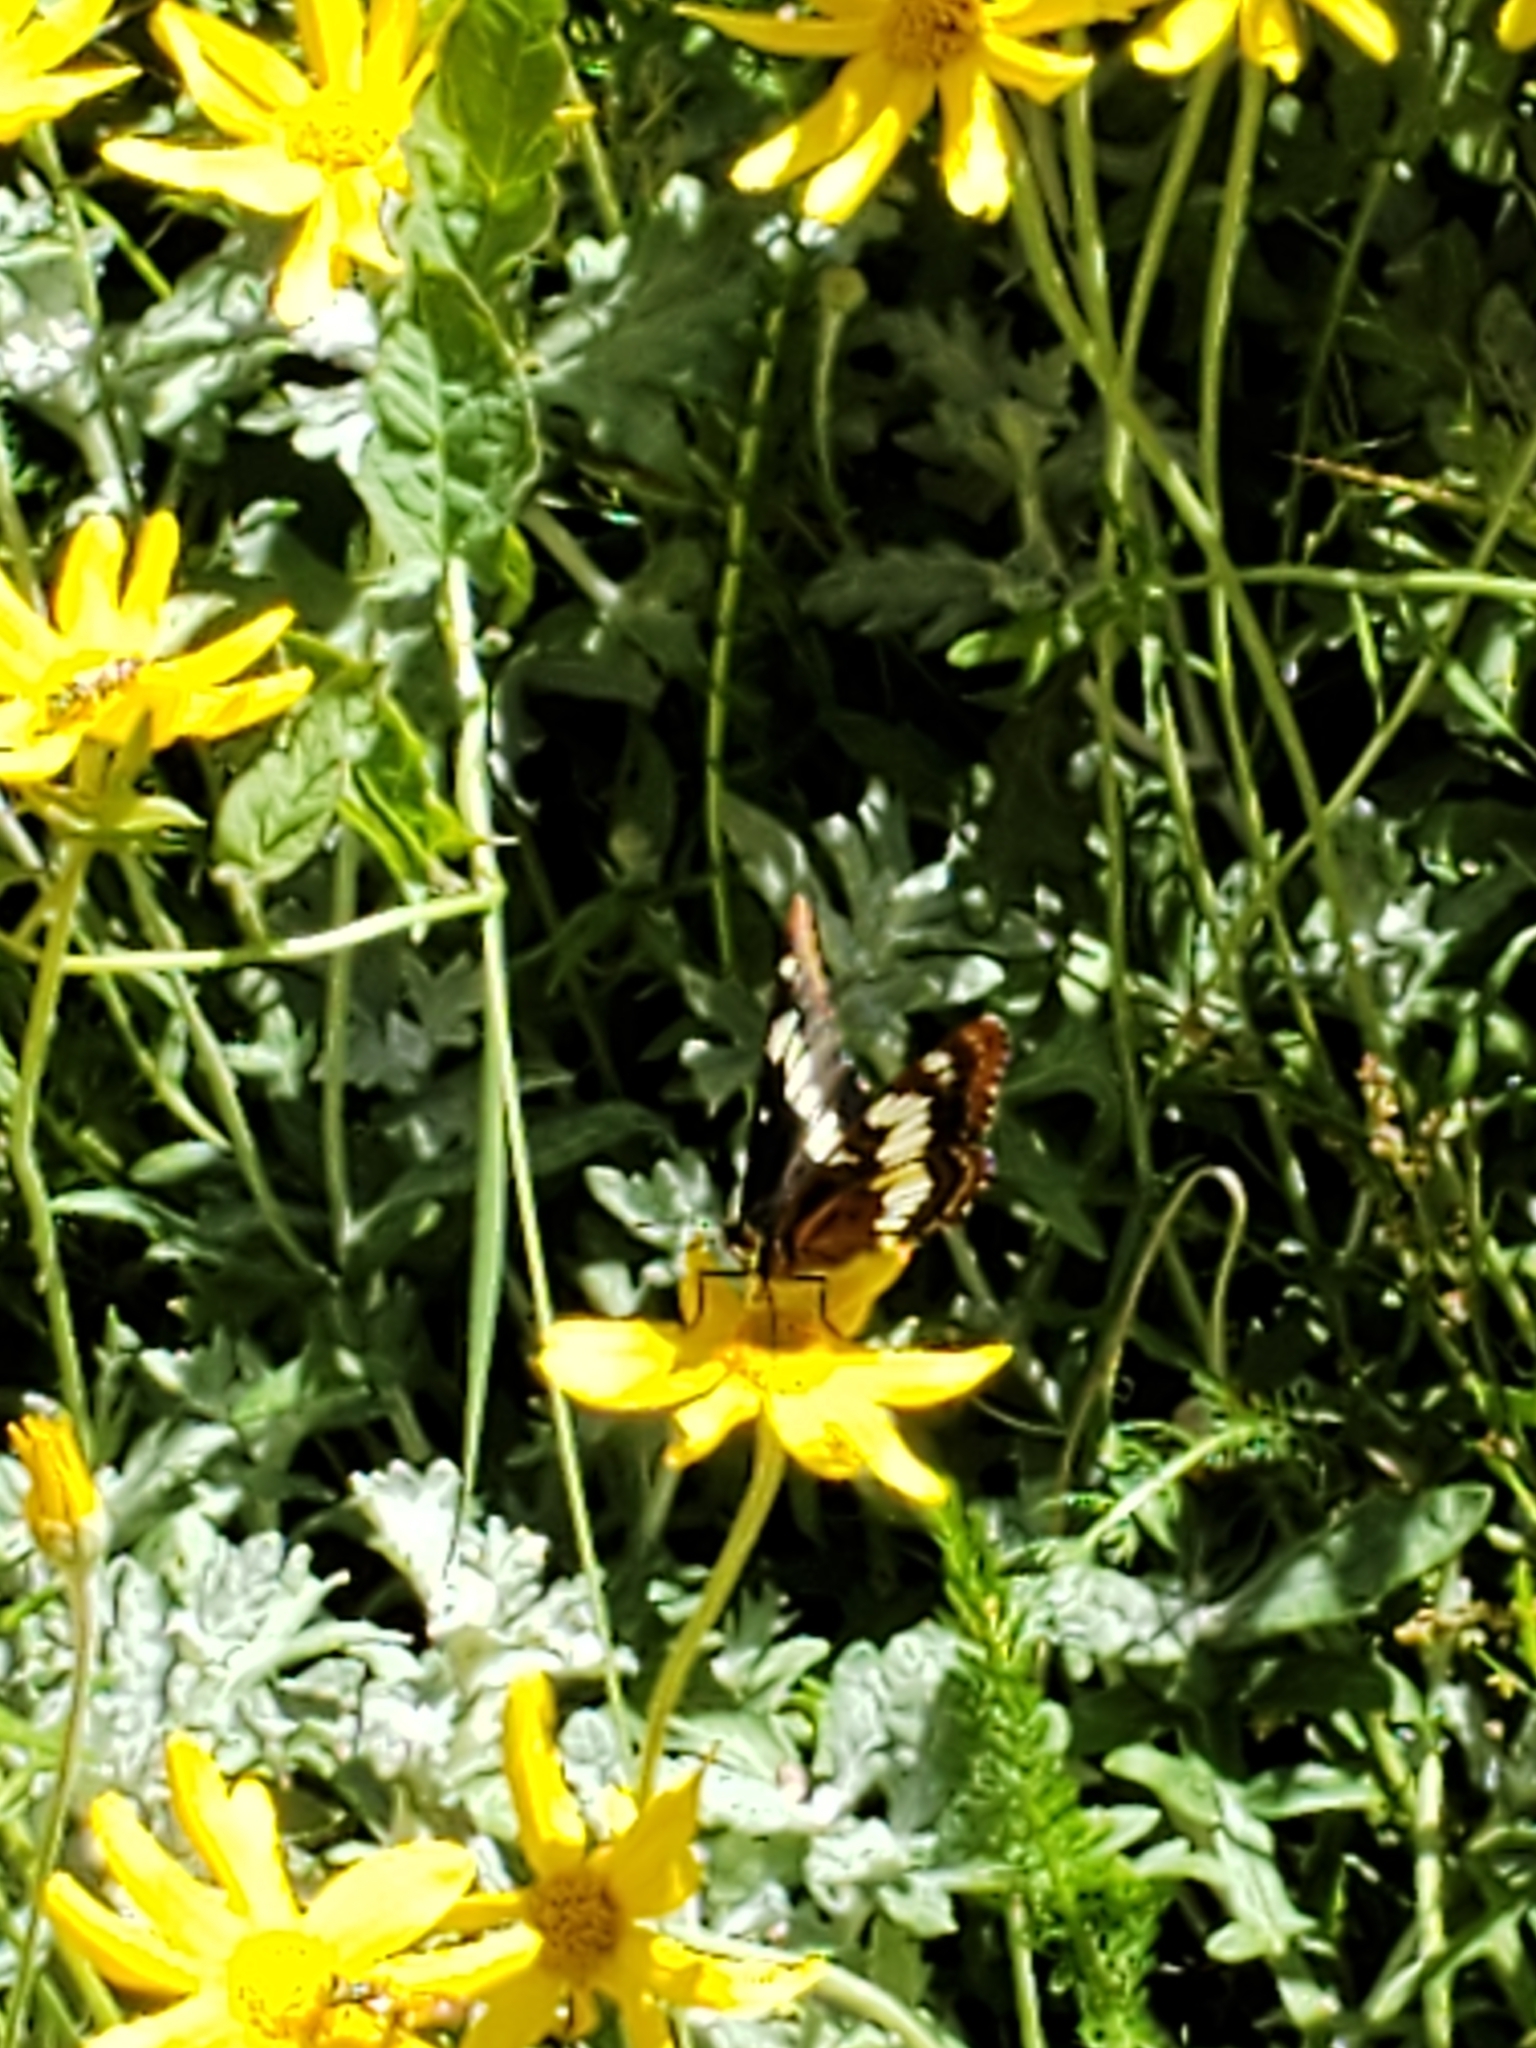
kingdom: Animalia
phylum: Arthropoda
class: Insecta
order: Lepidoptera
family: Nymphalidae
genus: Limenitis
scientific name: Limenitis lorquini
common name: Lorquin's admiral
